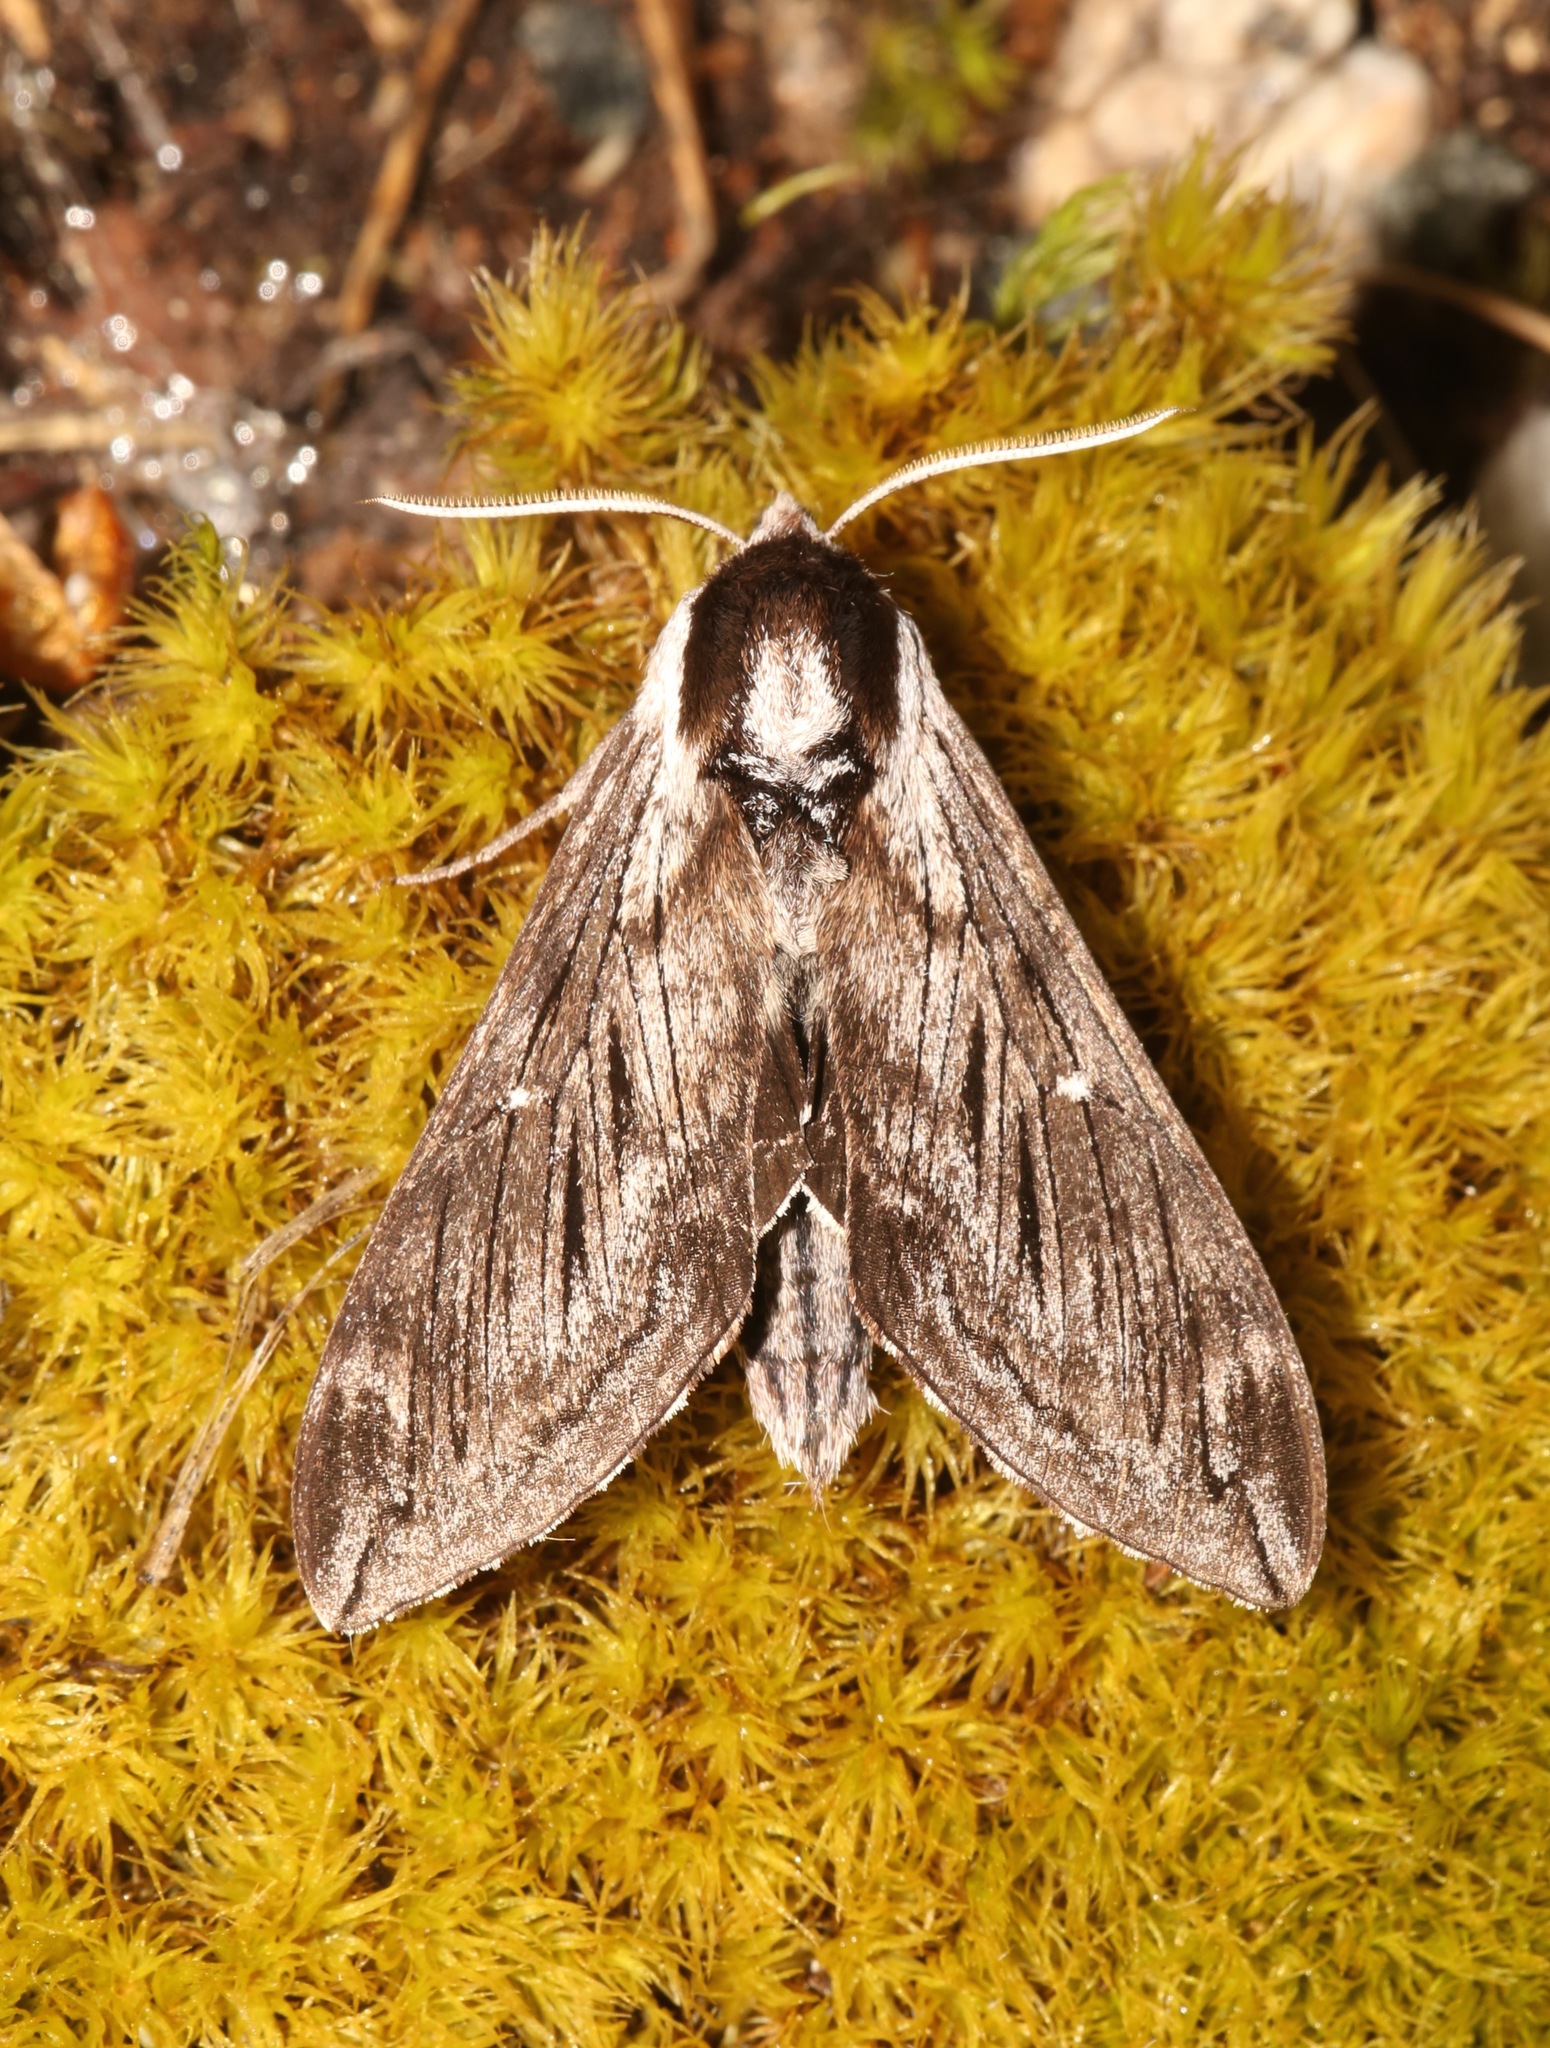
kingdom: Animalia
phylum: Arthropoda
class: Insecta
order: Lepidoptera
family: Sphingidae
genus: Sphinx
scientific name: Sphinx poecila
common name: Northern apple sphinx
